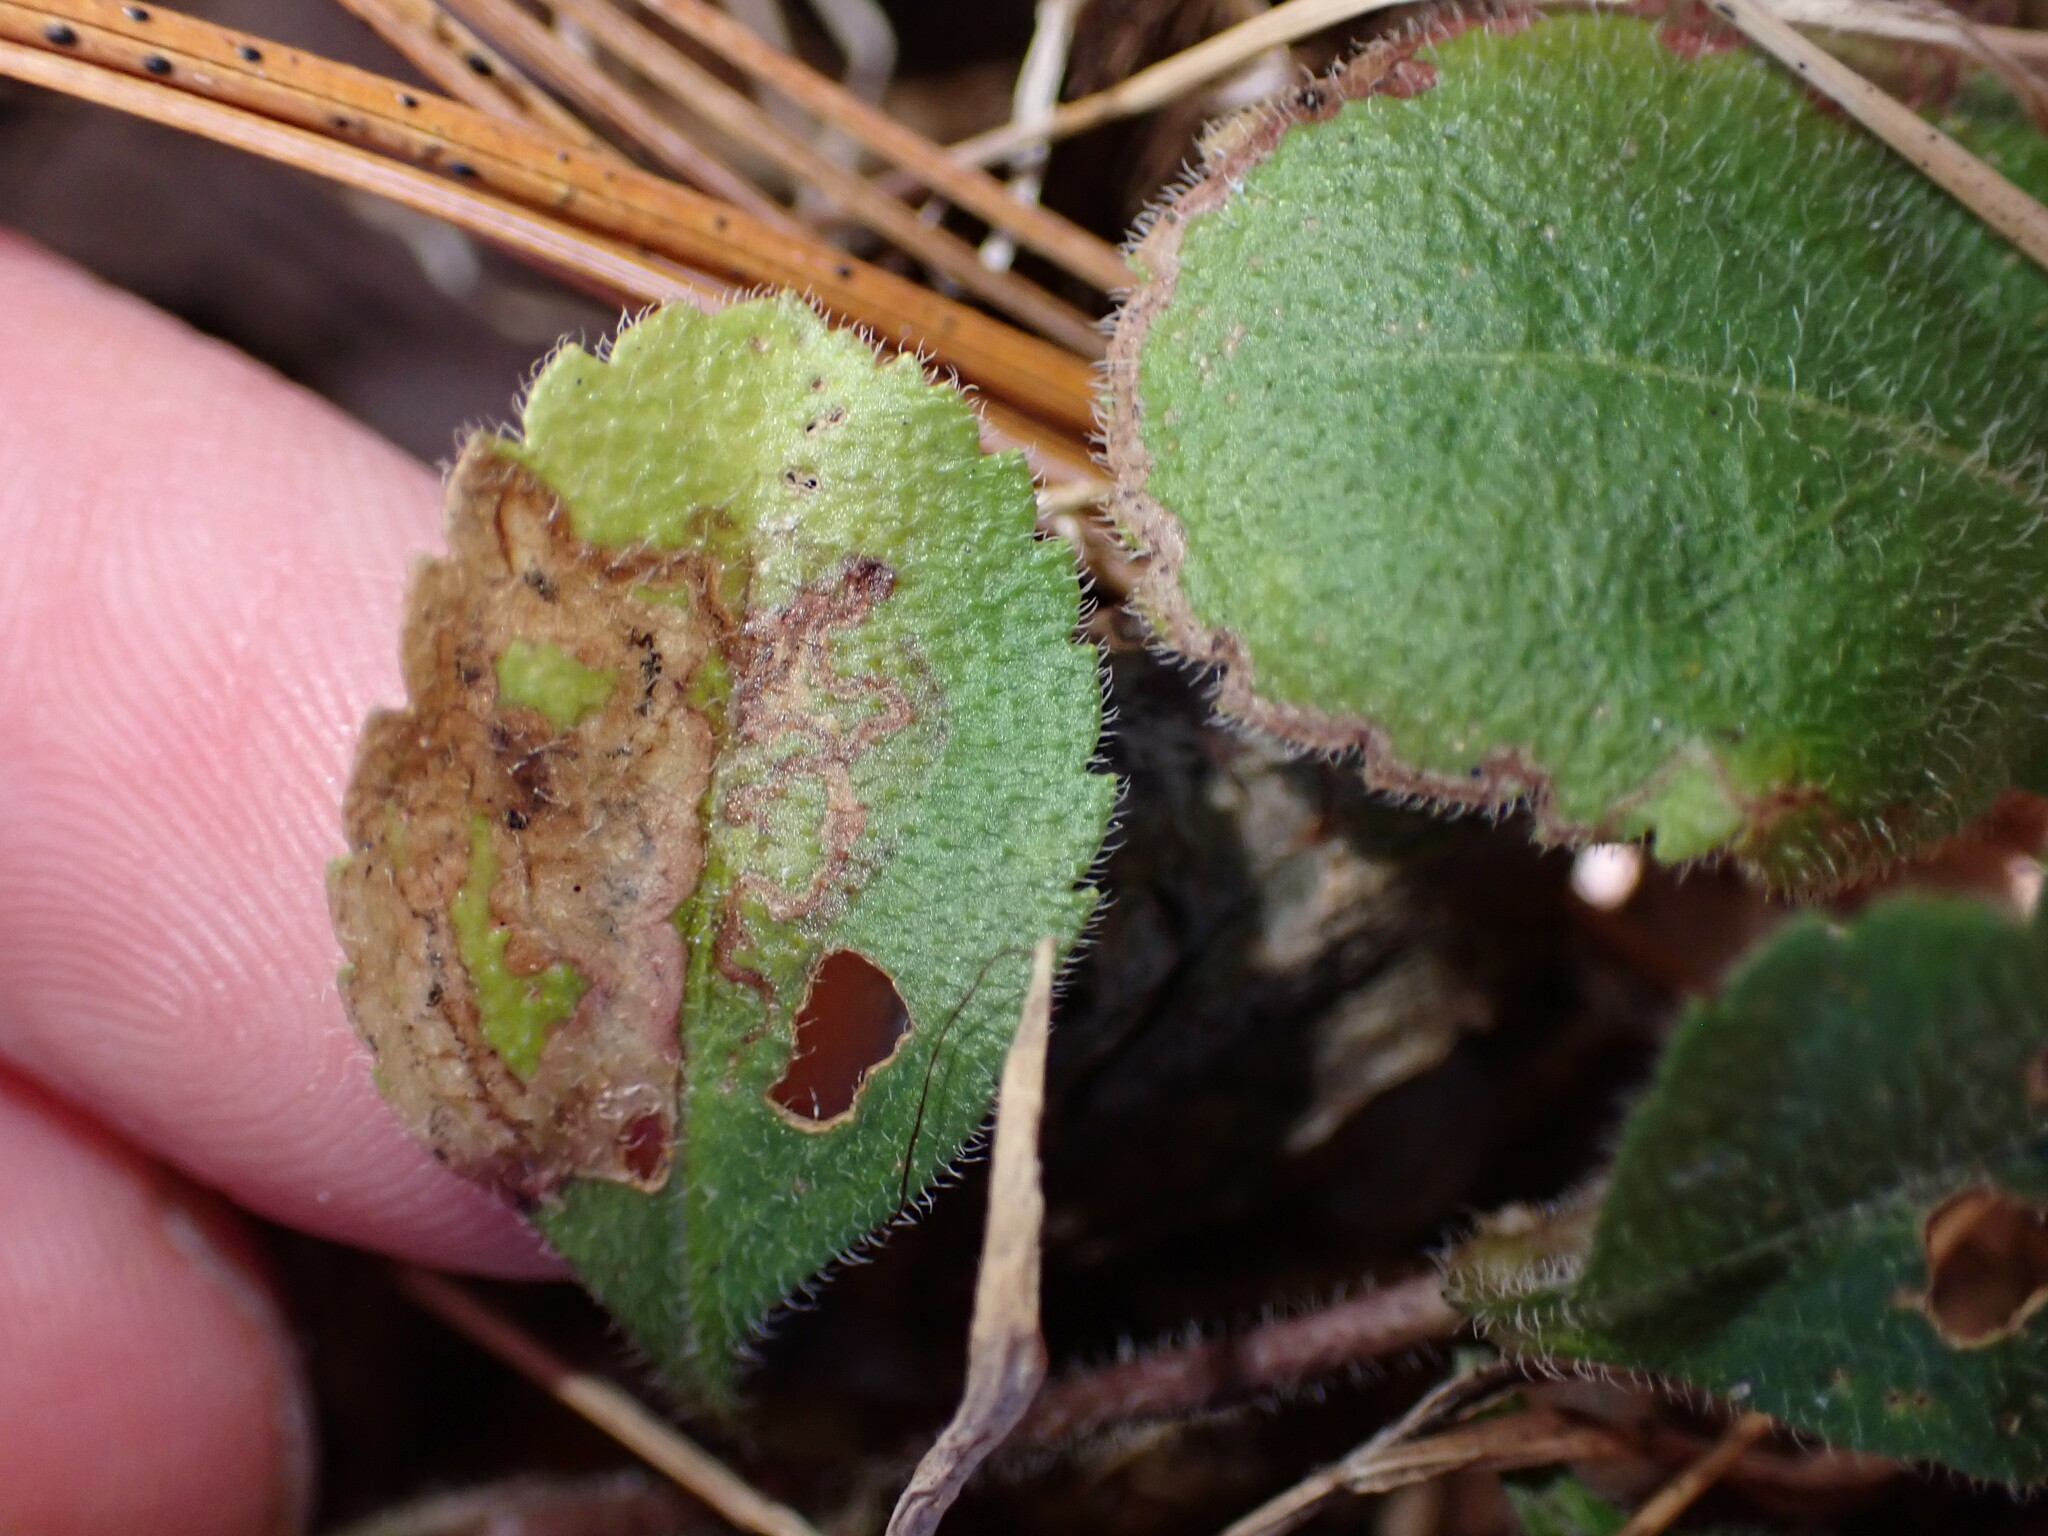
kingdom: Animalia
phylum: Arthropoda
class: Insecta
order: Diptera
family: Agromyzidae
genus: Phytomyza
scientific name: Phytomyza crassiseta
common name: Leaf-miner fly
